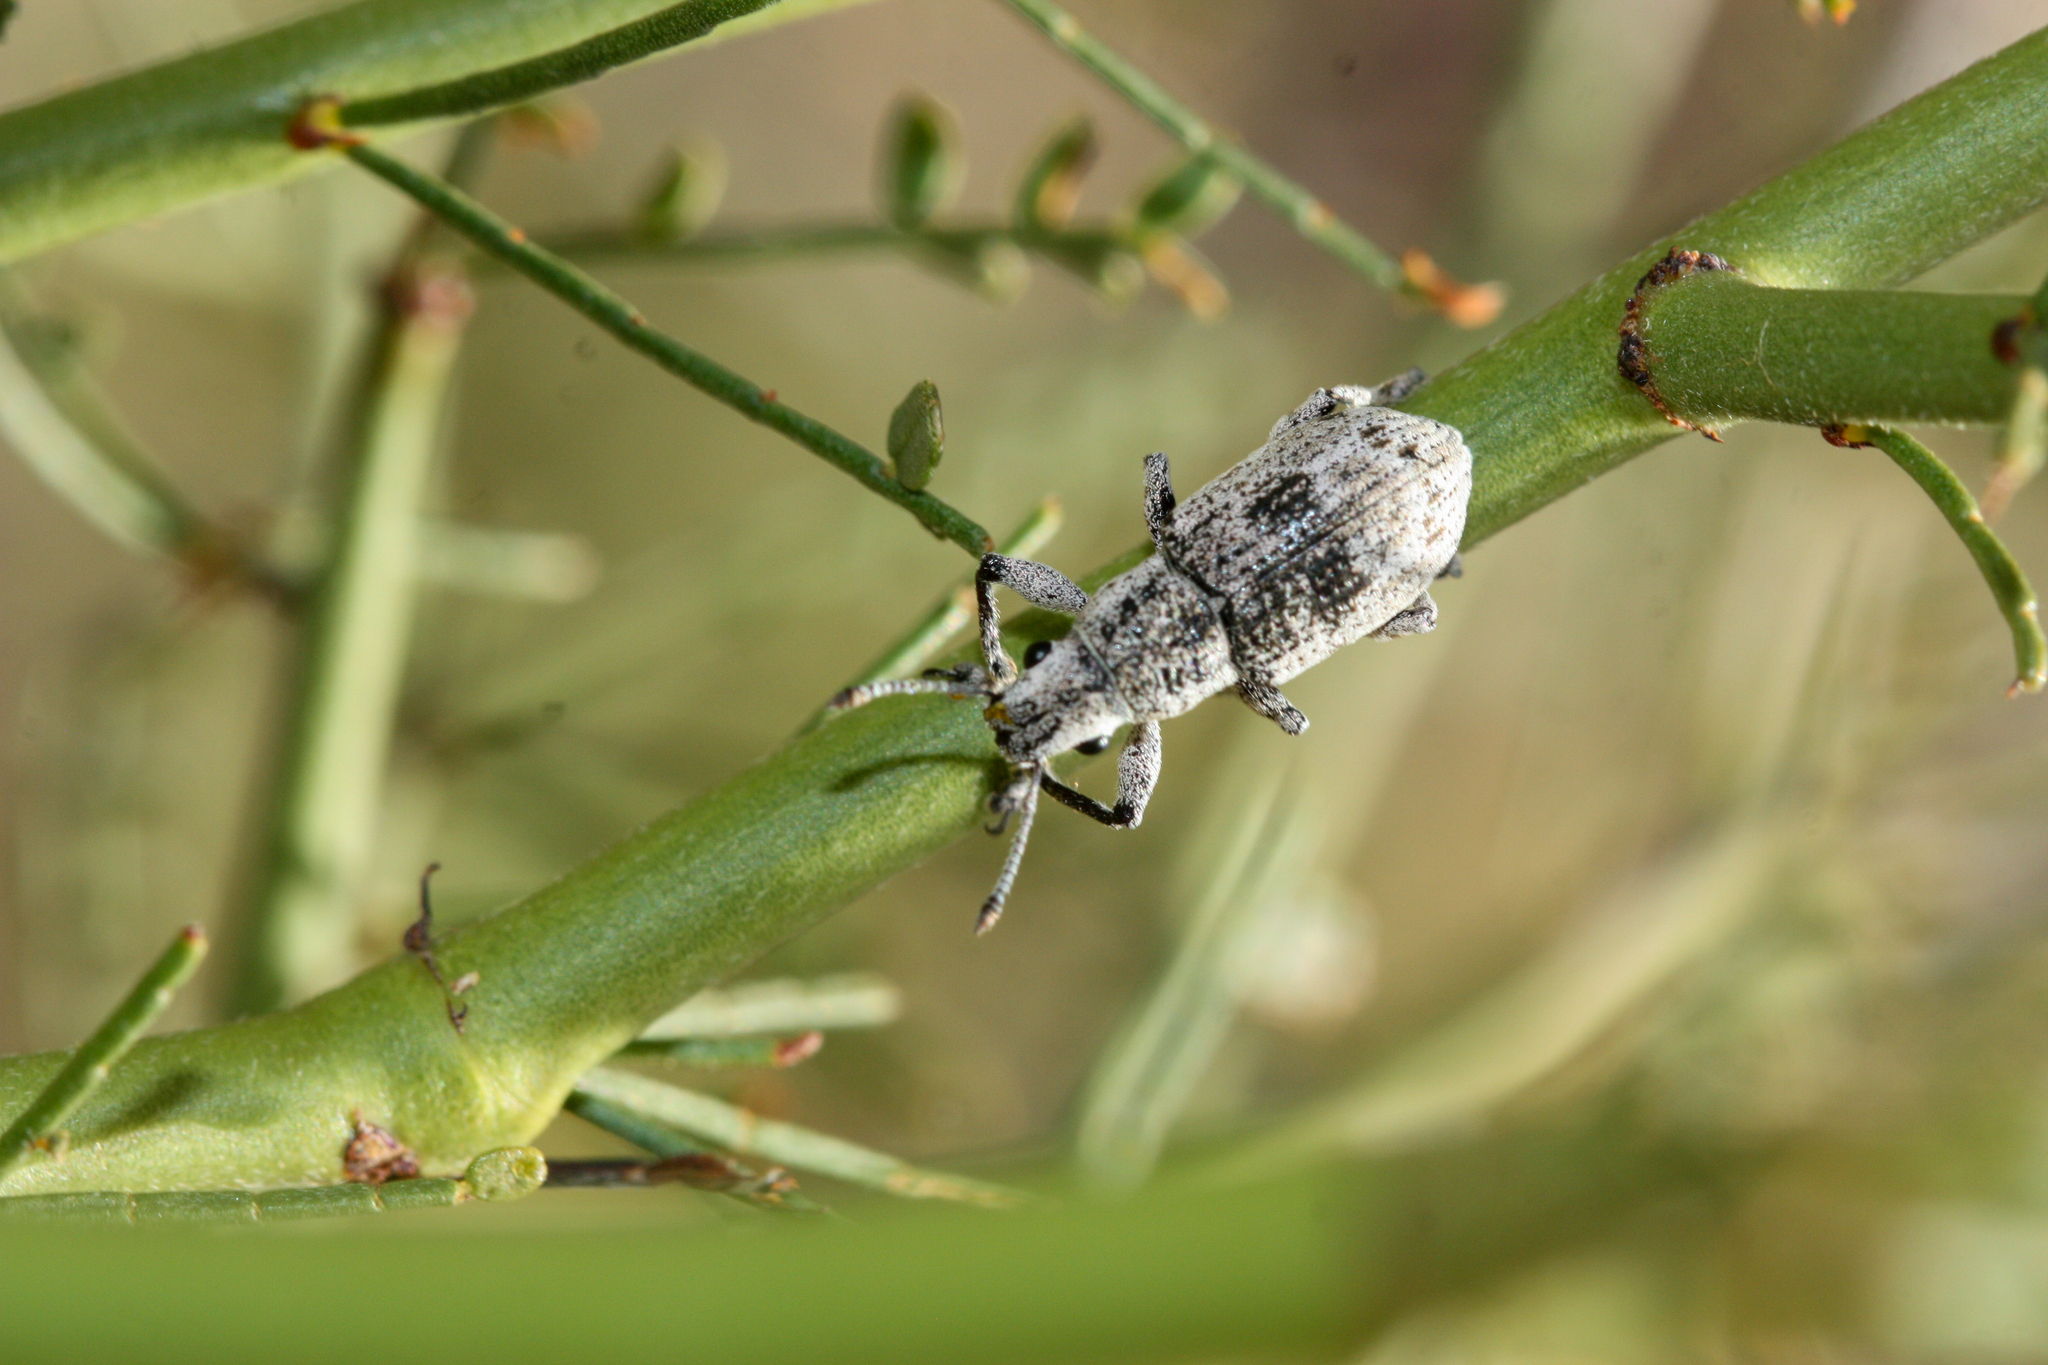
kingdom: Animalia
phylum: Arthropoda
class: Insecta
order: Coleoptera
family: Curculionidae
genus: Ericydeus
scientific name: Ericydeus lautus
